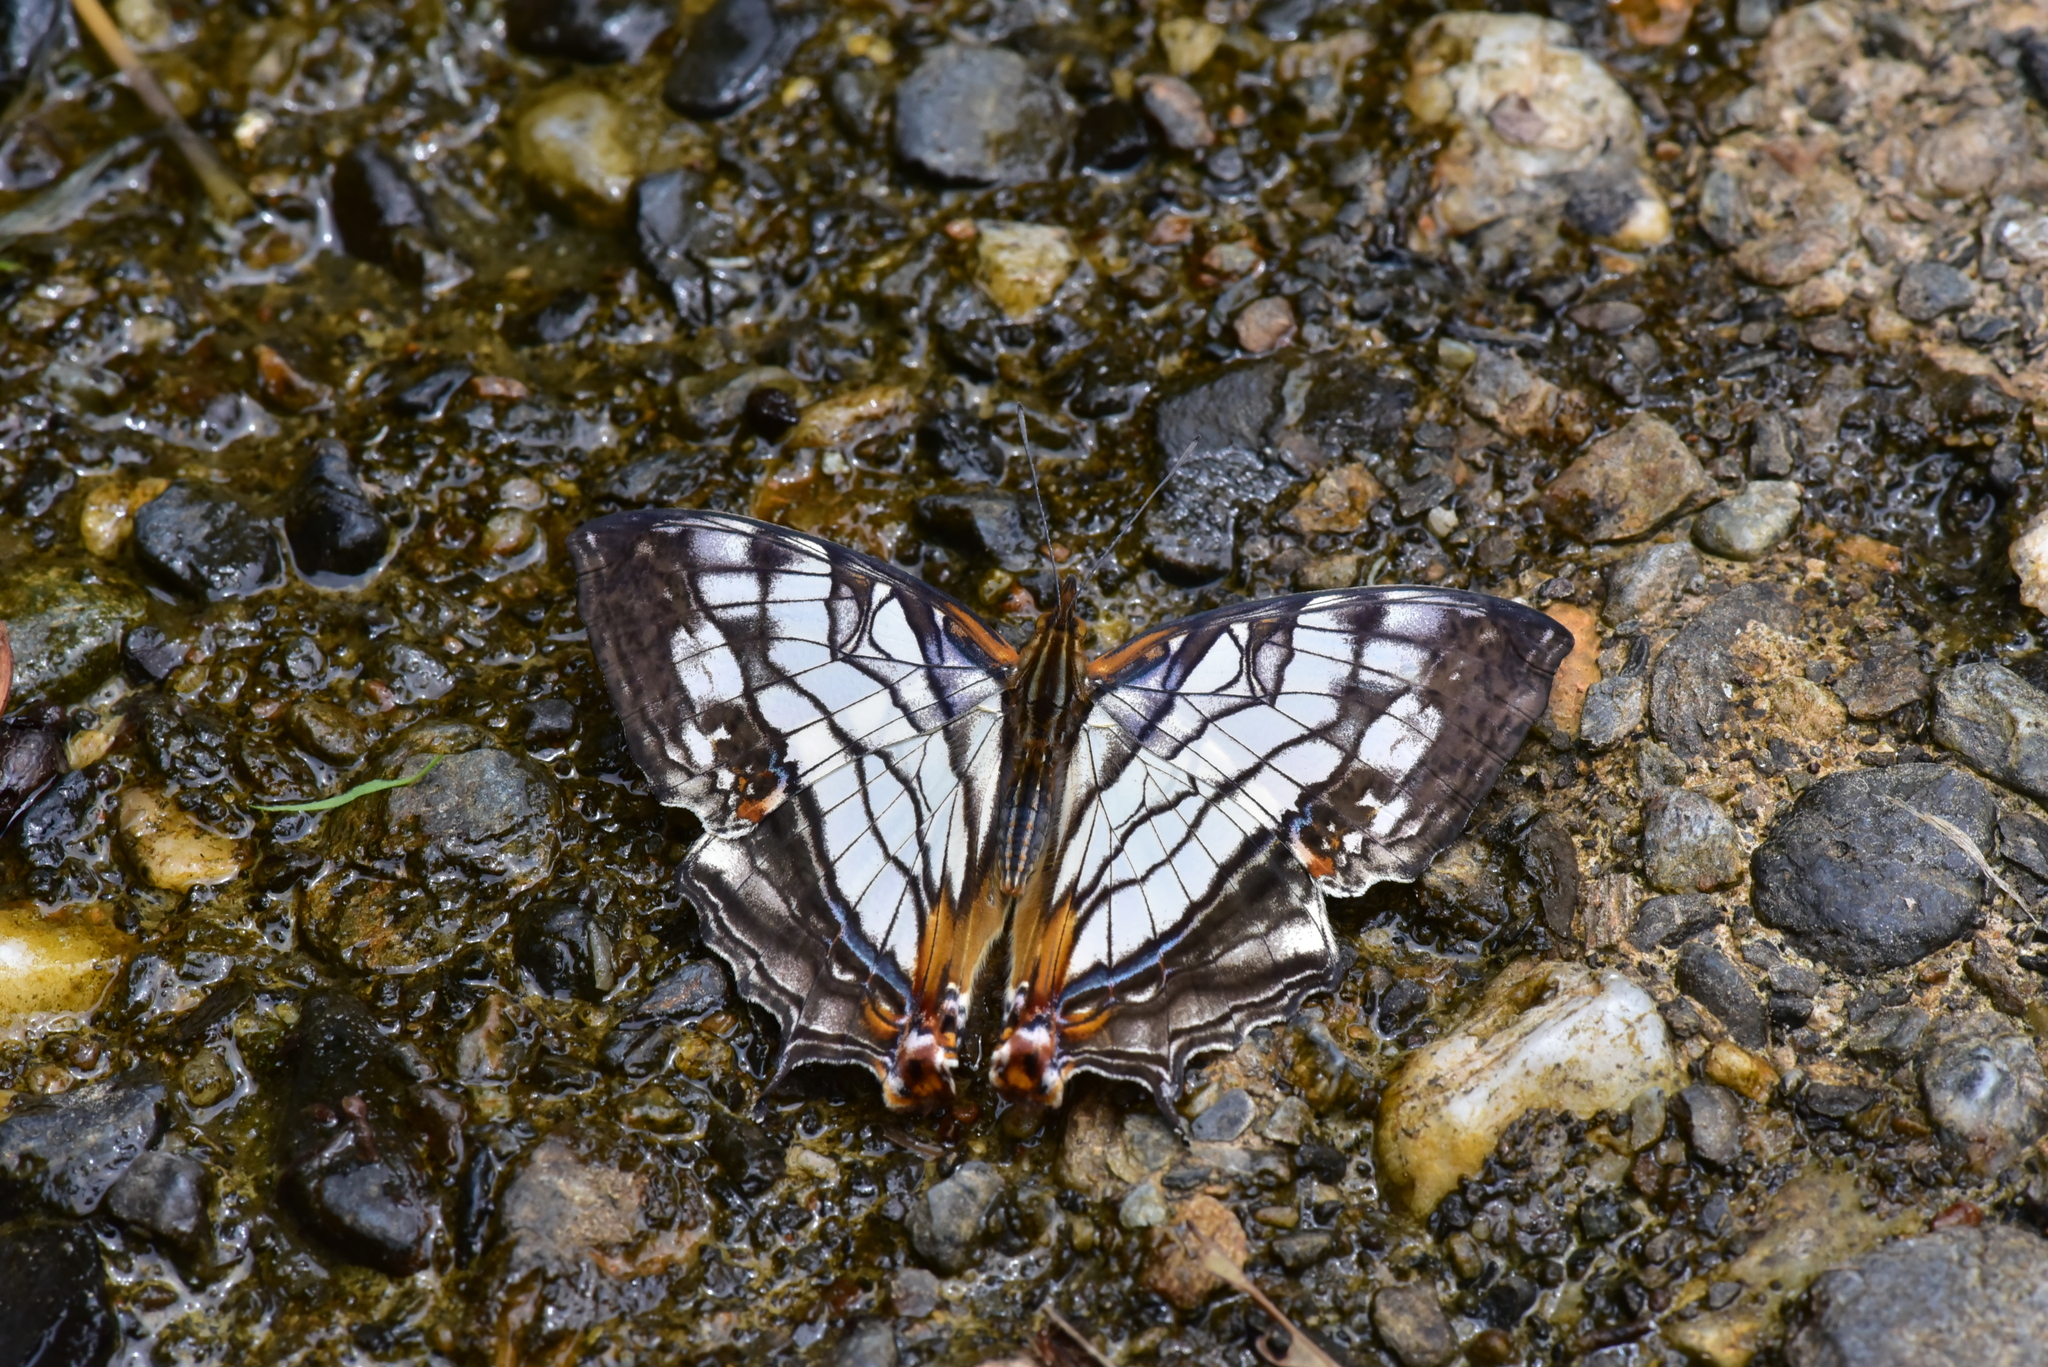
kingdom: Animalia
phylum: Arthropoda
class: Insecta
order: Lepidoptera
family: Nymphalidae
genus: Cyrestis
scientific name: Cyrestis thyodamas
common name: Common mapwing
